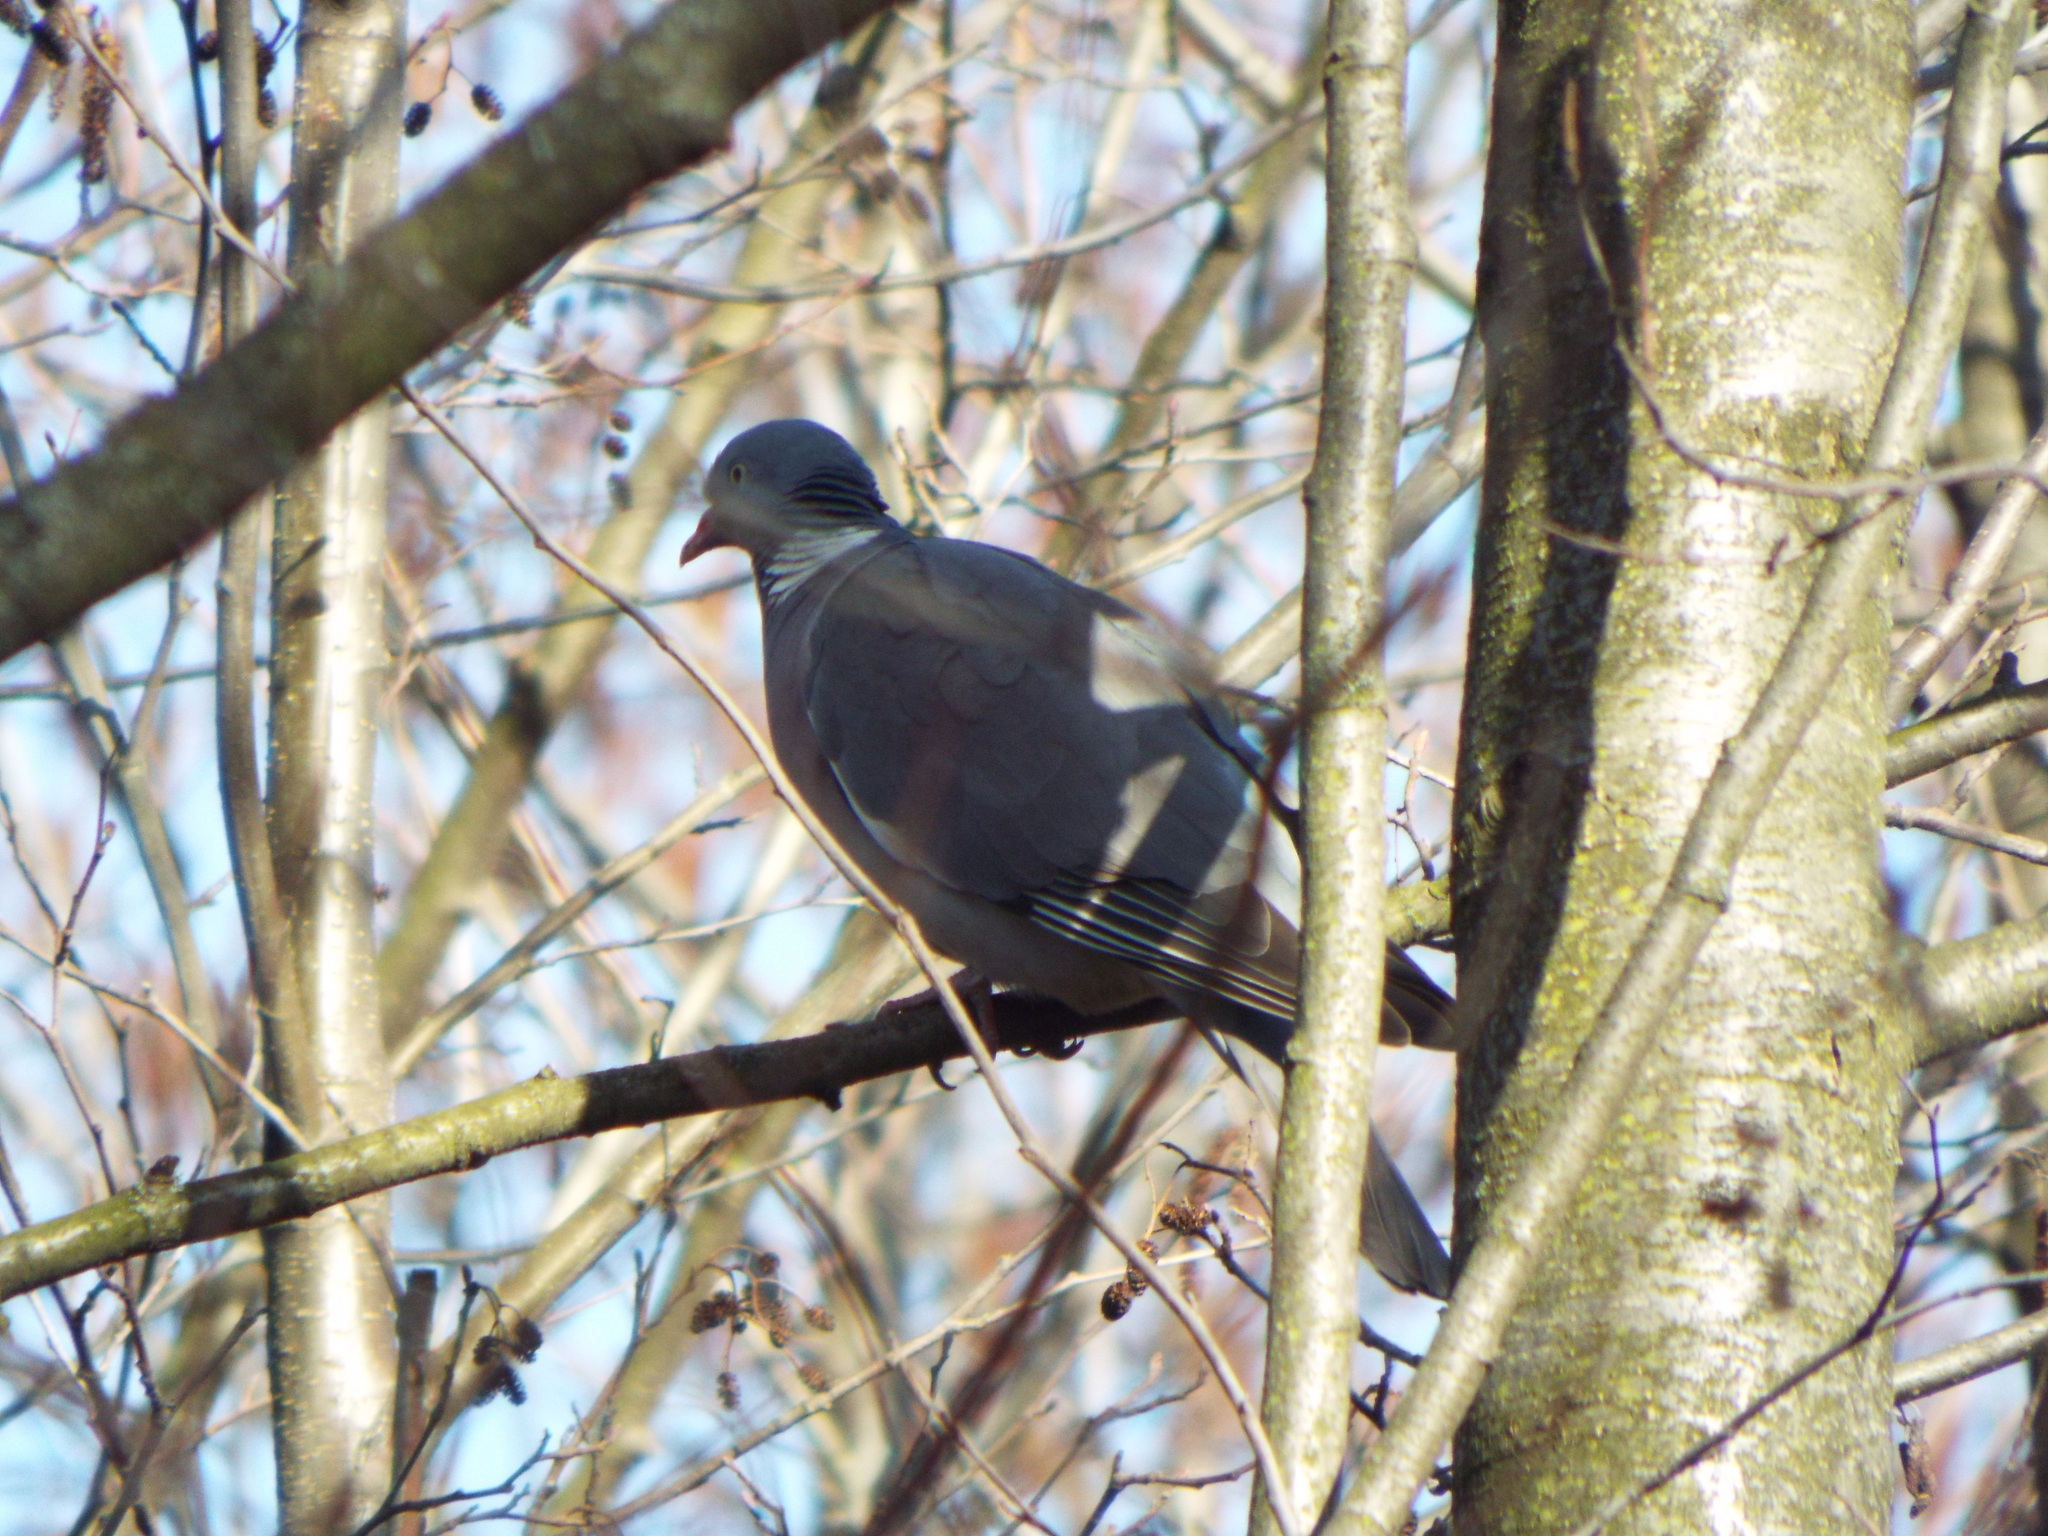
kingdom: Animalia
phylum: Chordata
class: Aves
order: Columbiformes
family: Columbidae
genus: Columba
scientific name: Columba palumbus
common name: Common wood pigeon
